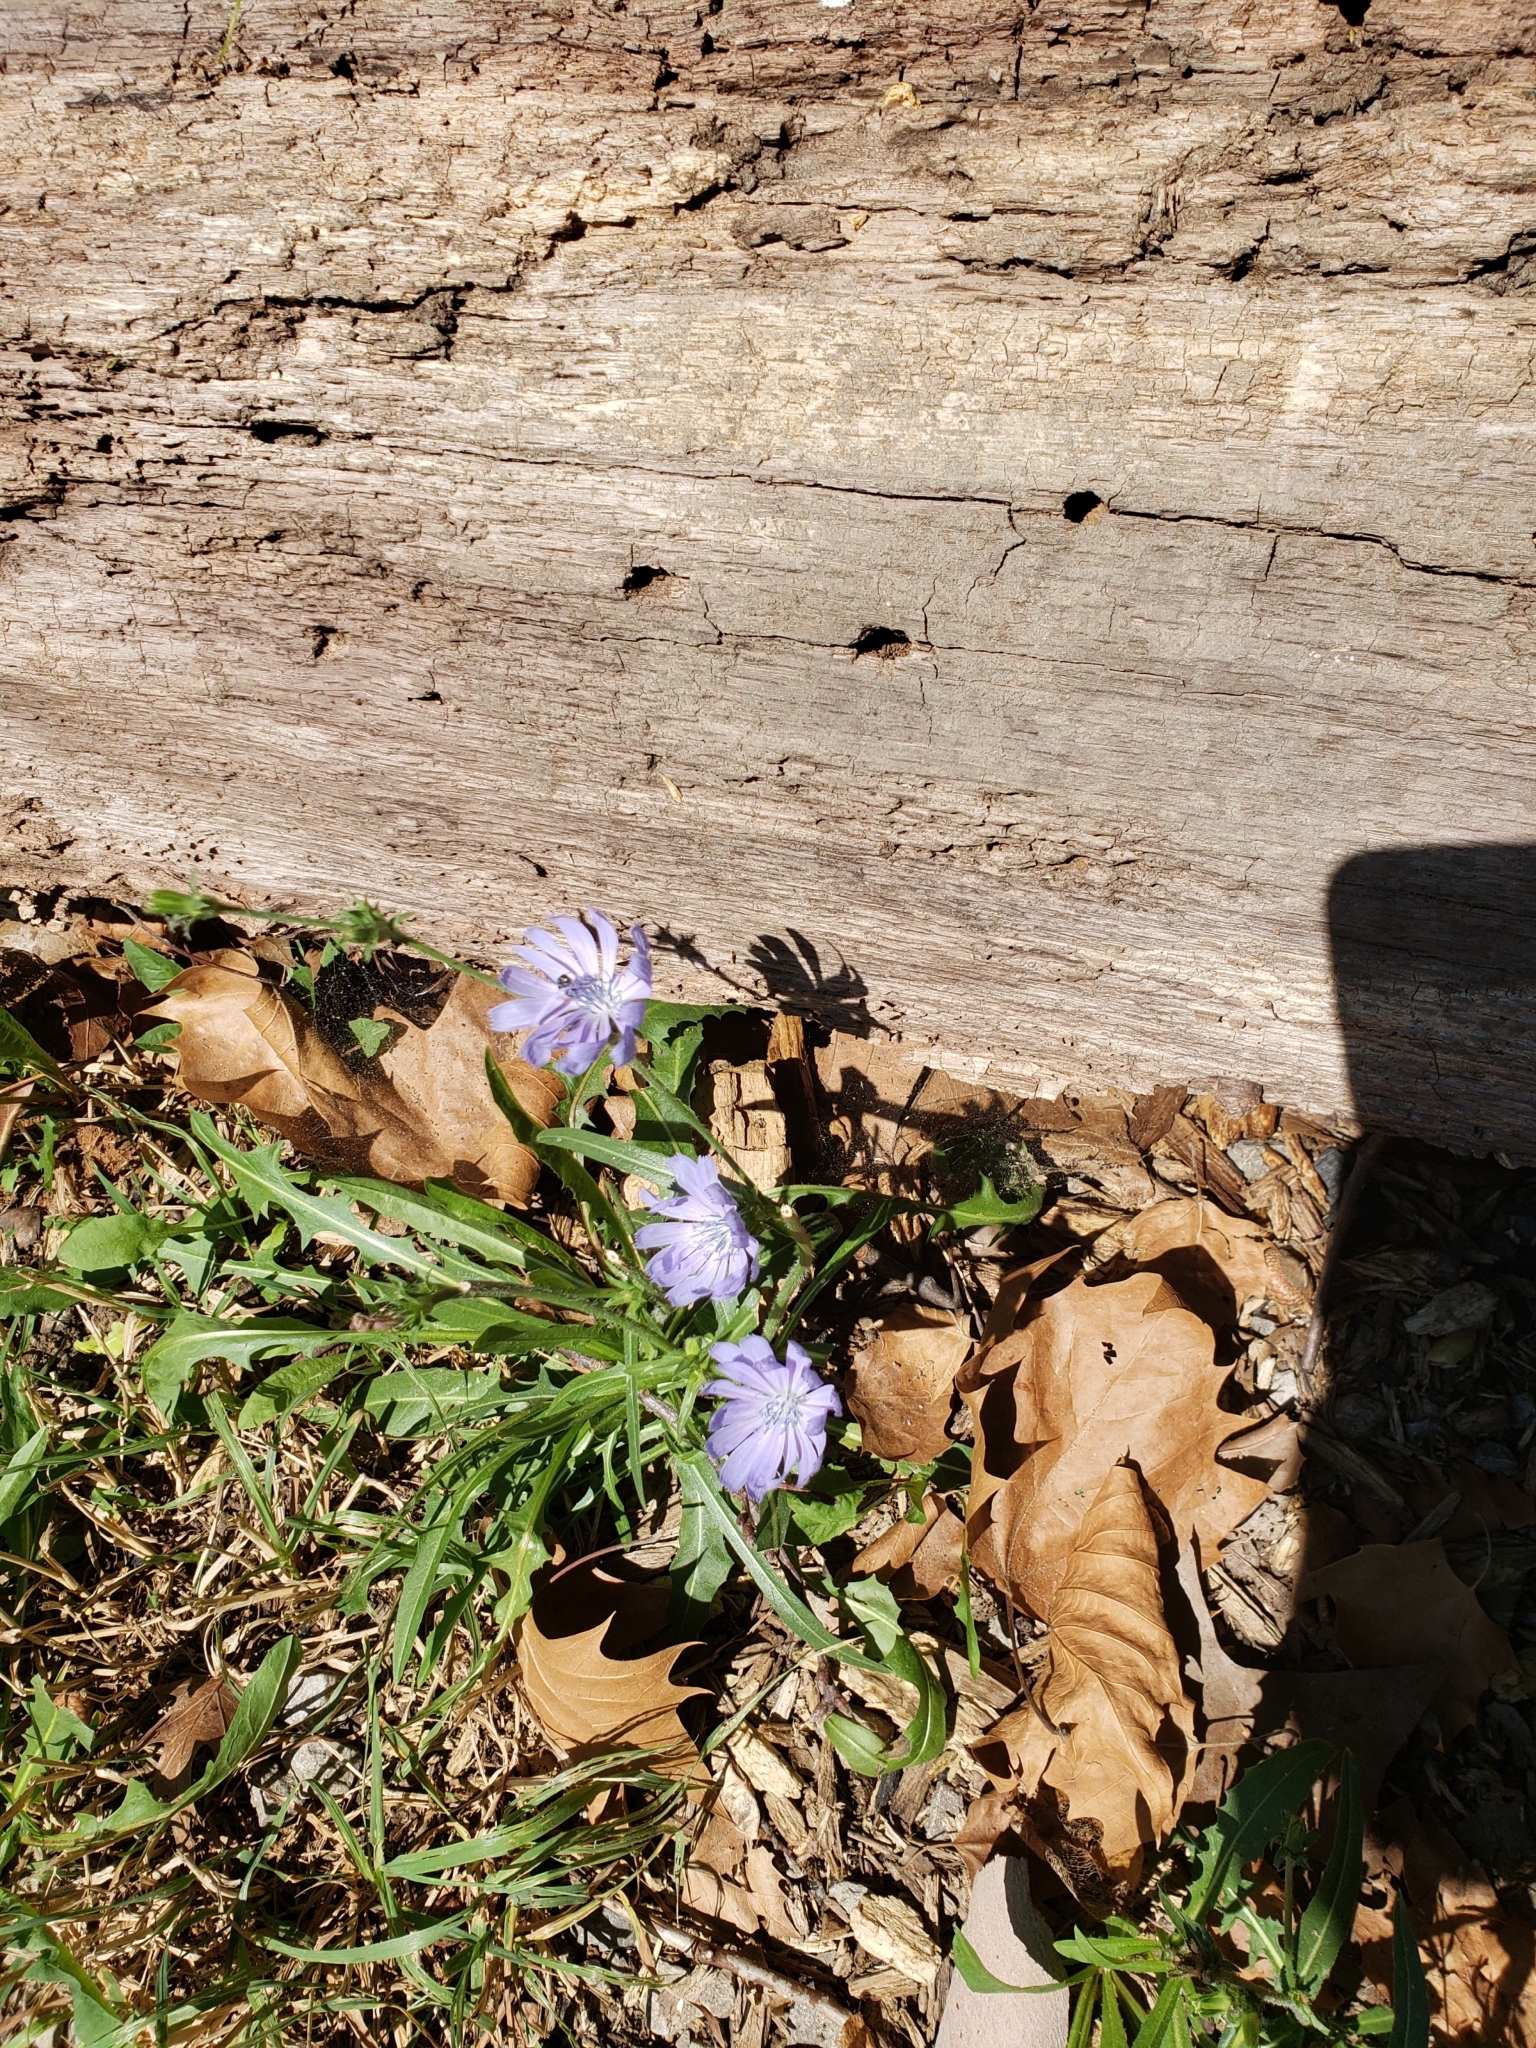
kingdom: Plantae
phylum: Tracheophyta
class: Magnoliopsida
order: Asterales
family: Asteraceae
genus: Cichorium
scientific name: Cichorium intybus
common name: Chicory
